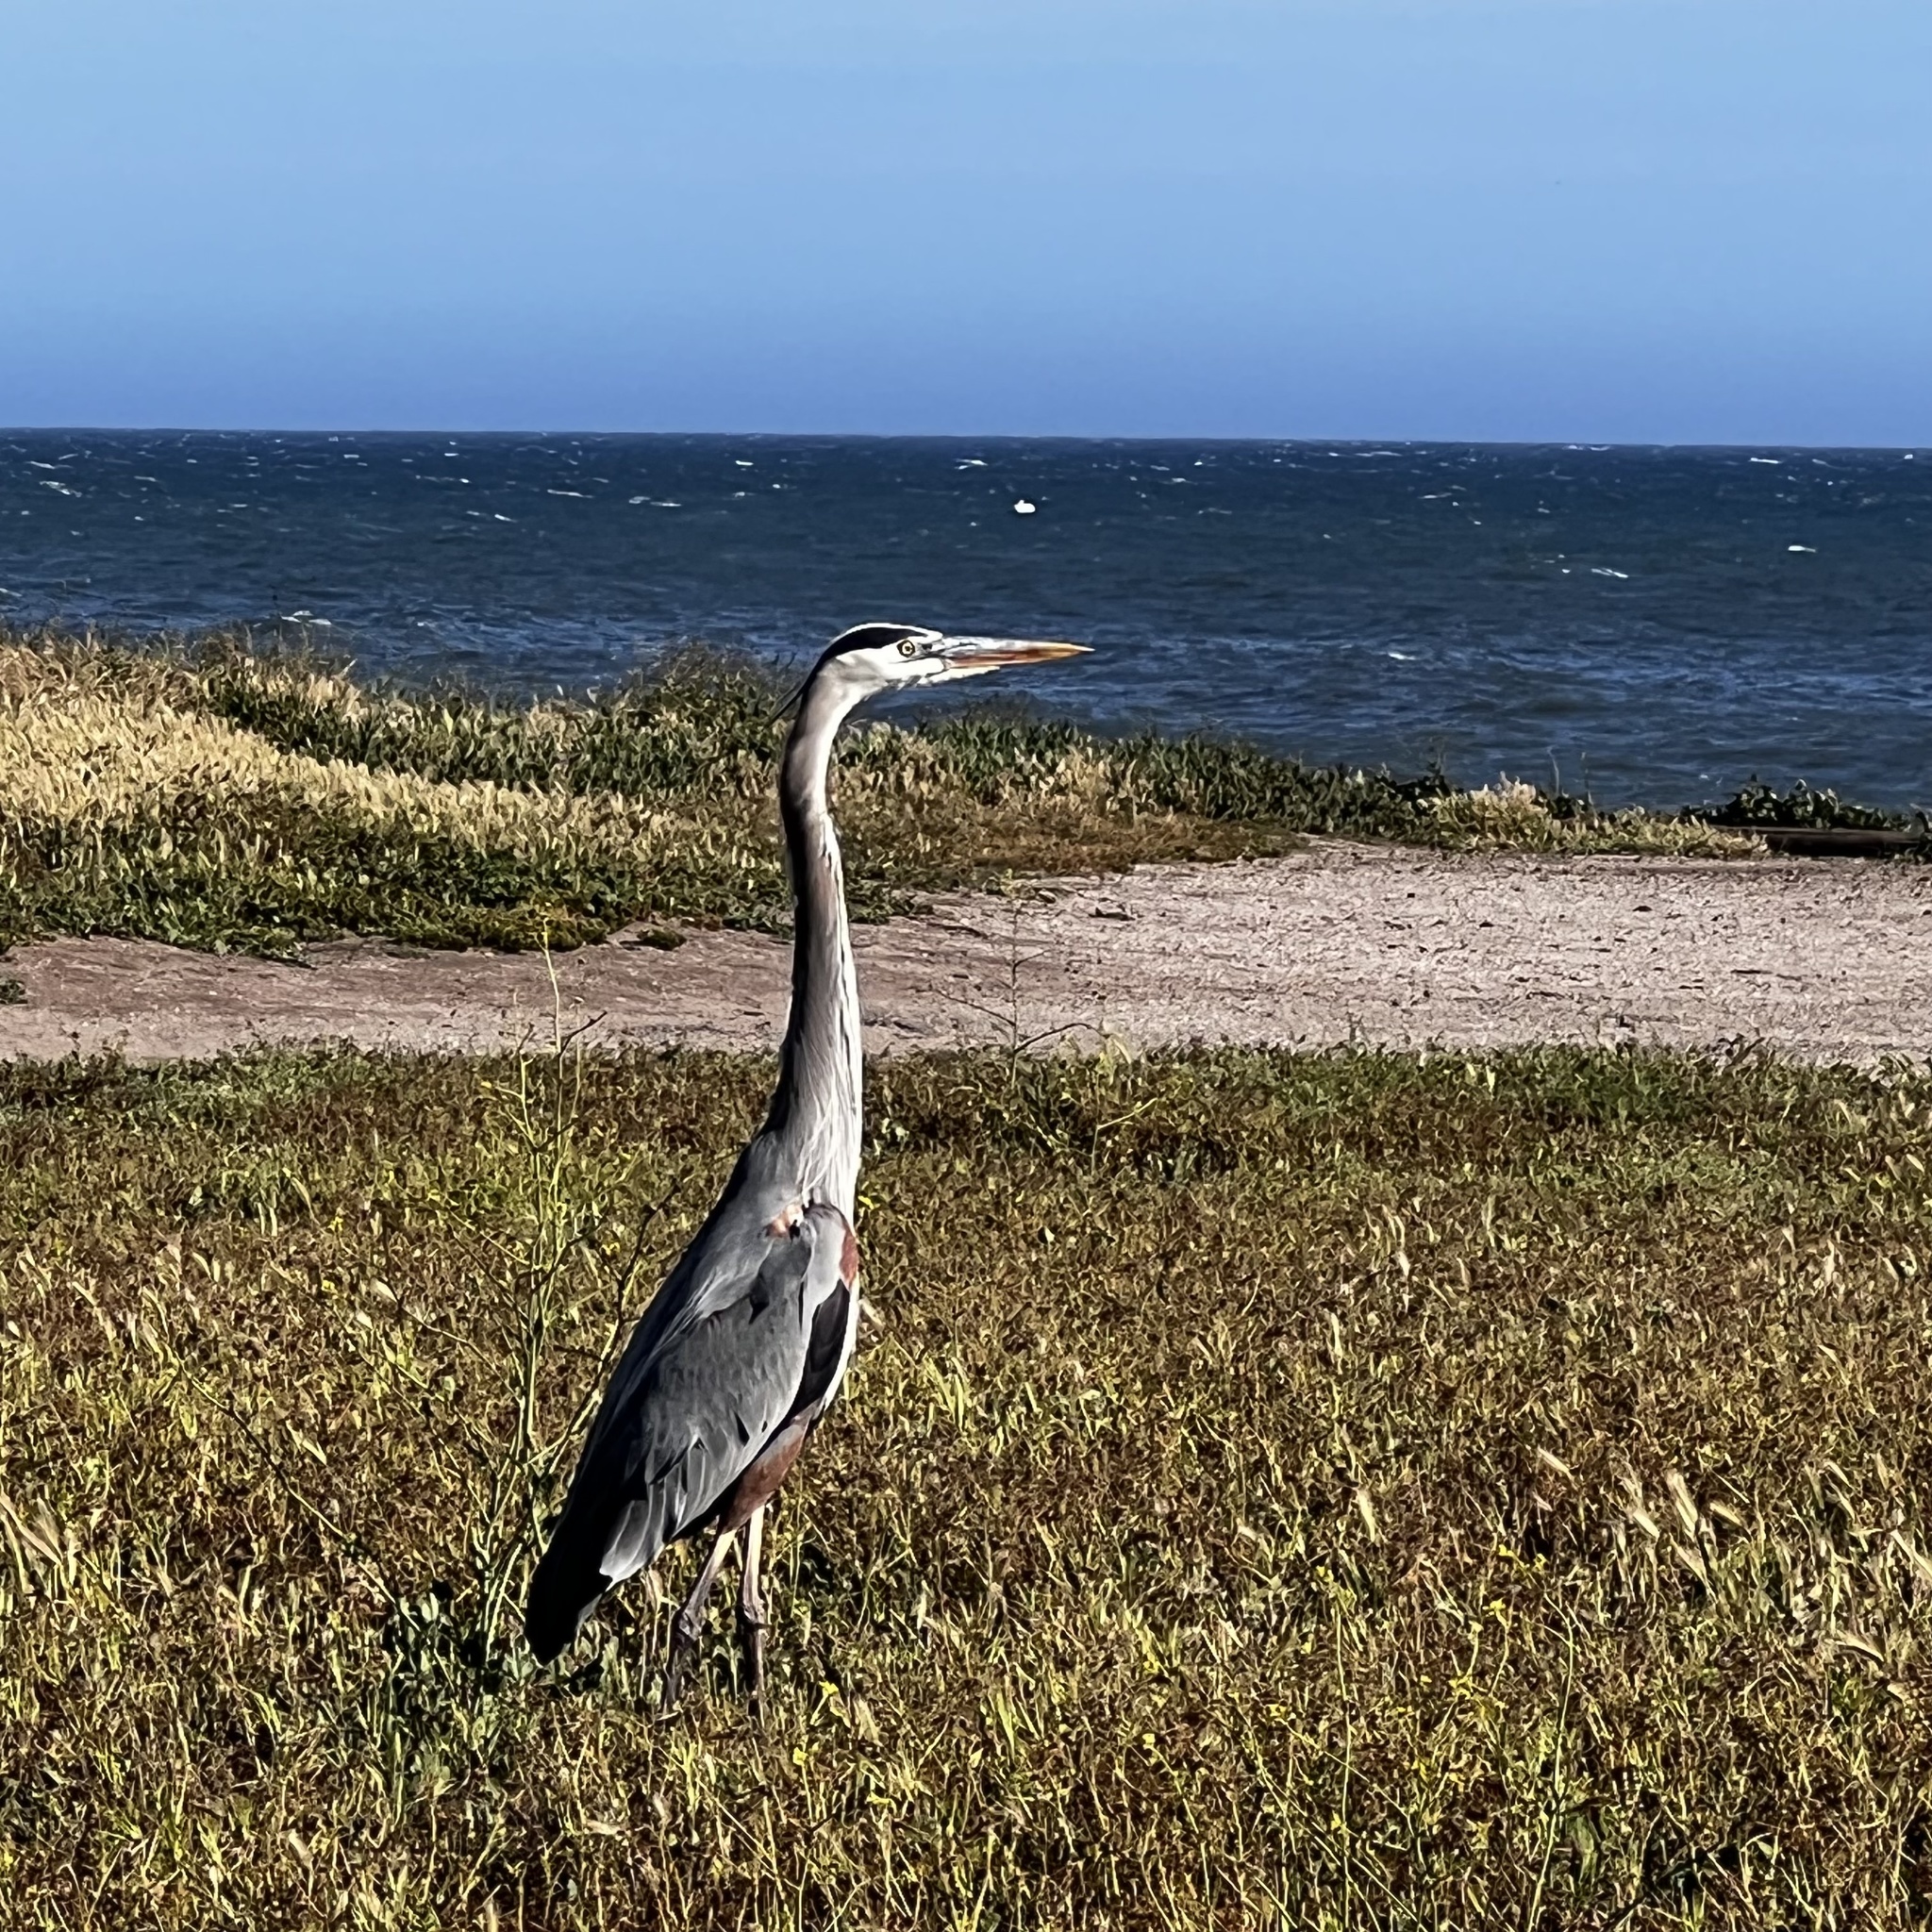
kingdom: Animalia
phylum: Chordata
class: Aves
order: Pelecaniformes
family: Ardeidae
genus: Ardea
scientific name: Ardea herodias
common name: Great blue heron
